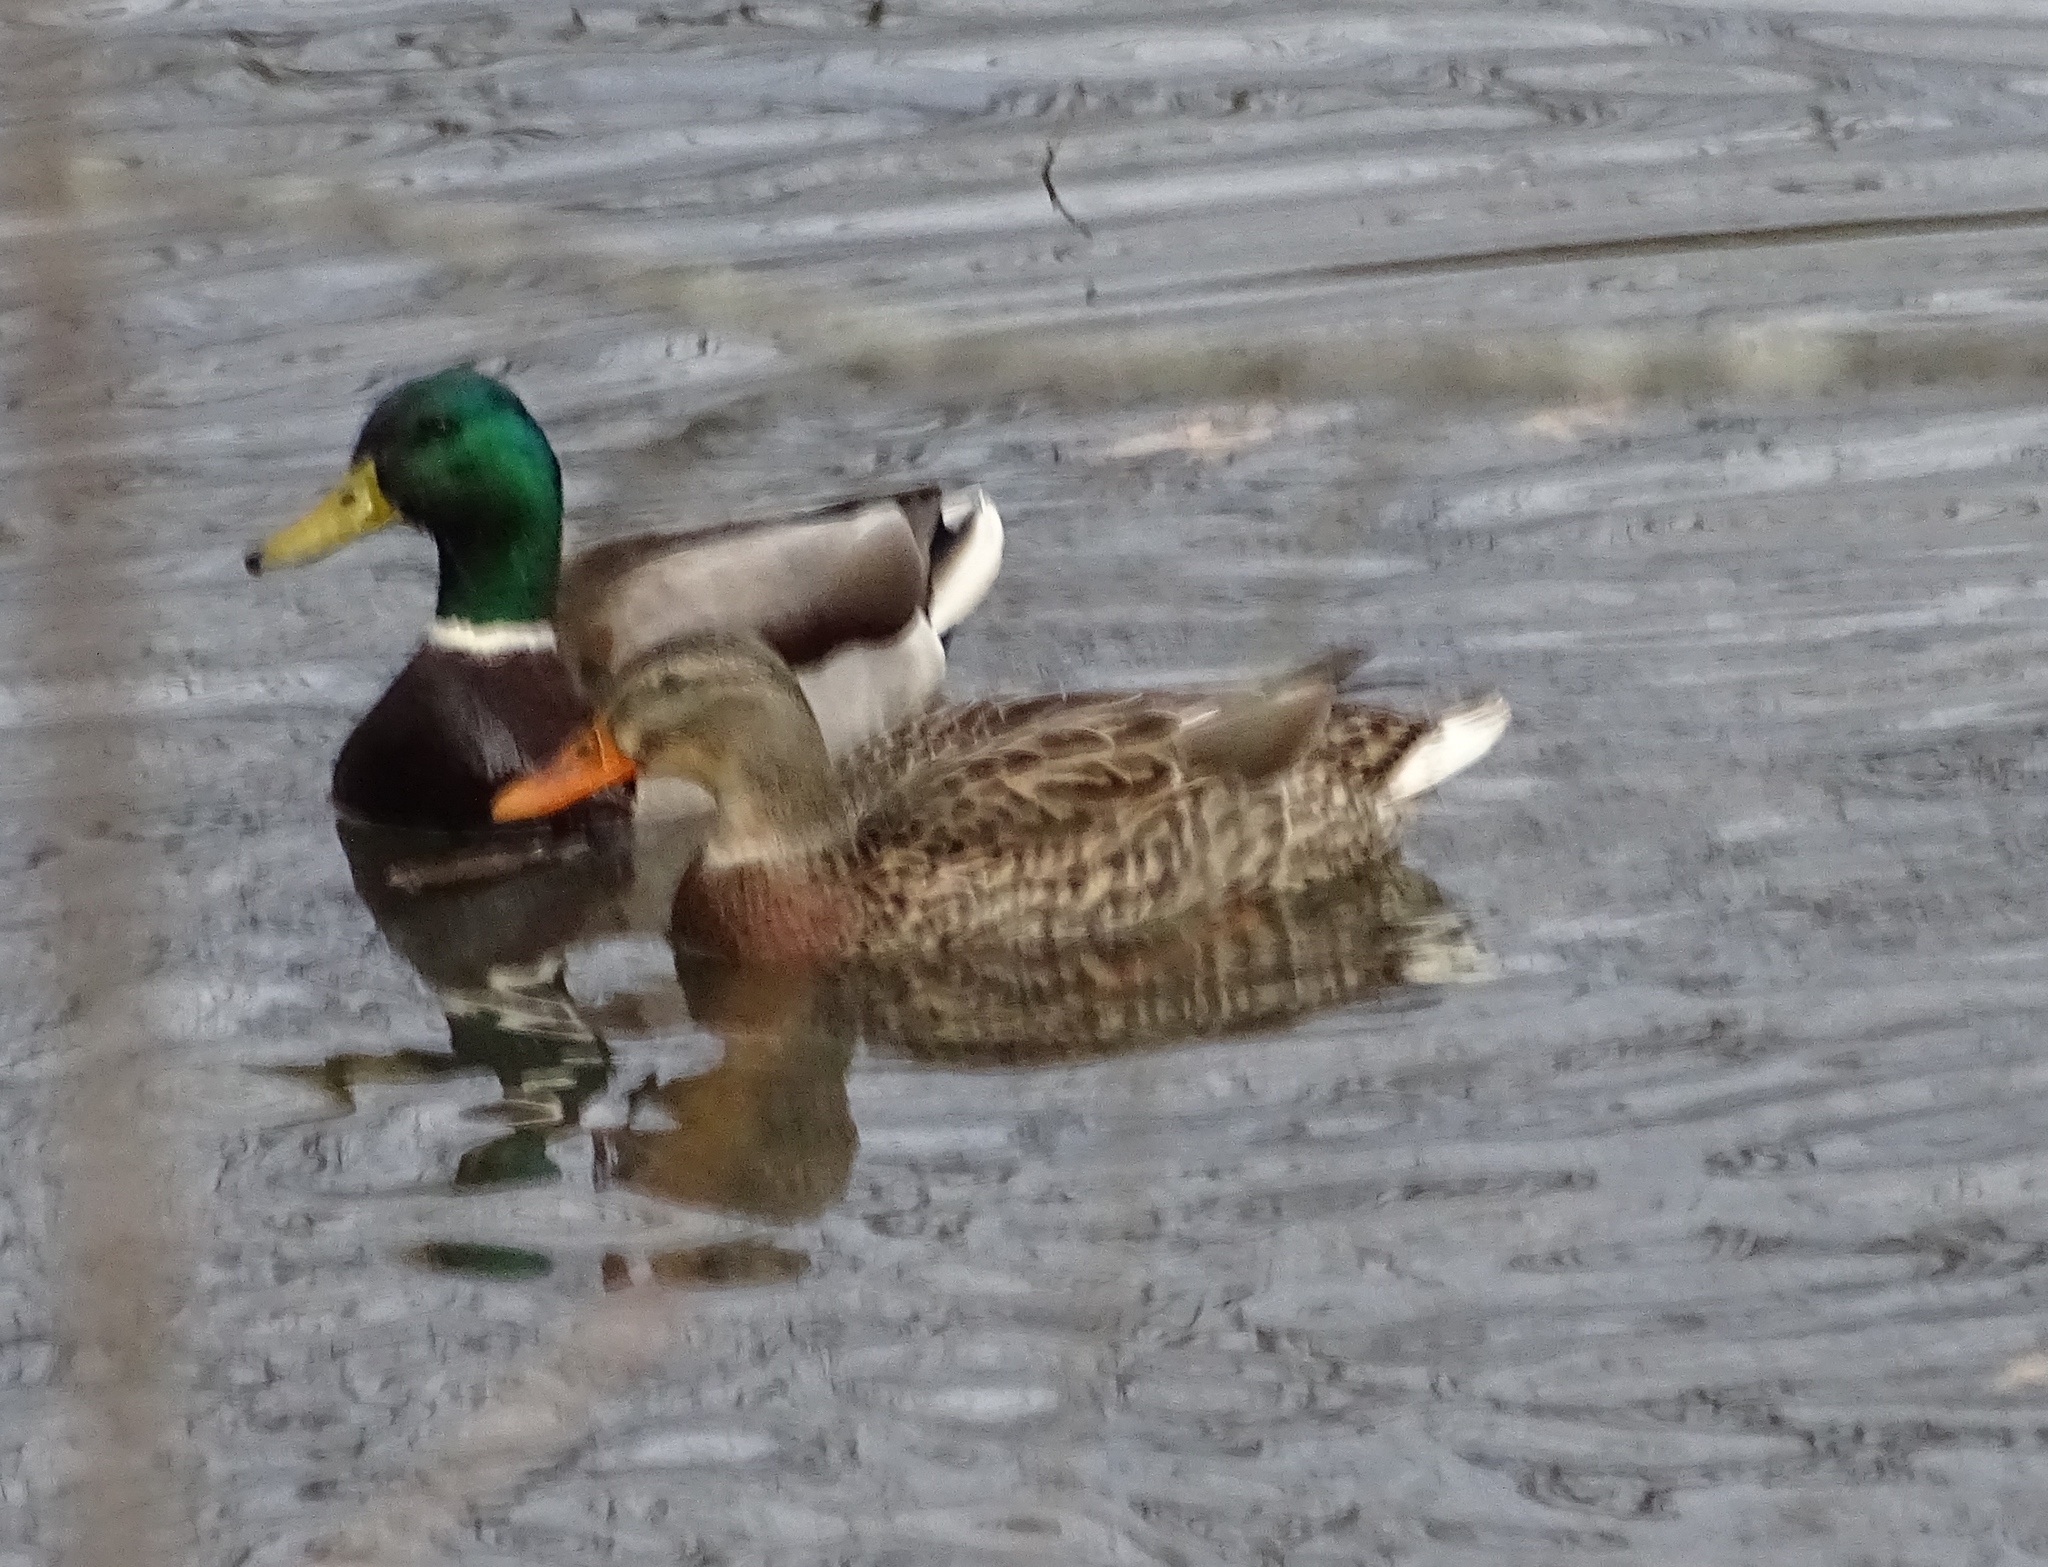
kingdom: Animalia
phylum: Chordata
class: Aves
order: Anseriformes
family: Anatidae
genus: Anas
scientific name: Anas platyrhynchos
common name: Mallard
